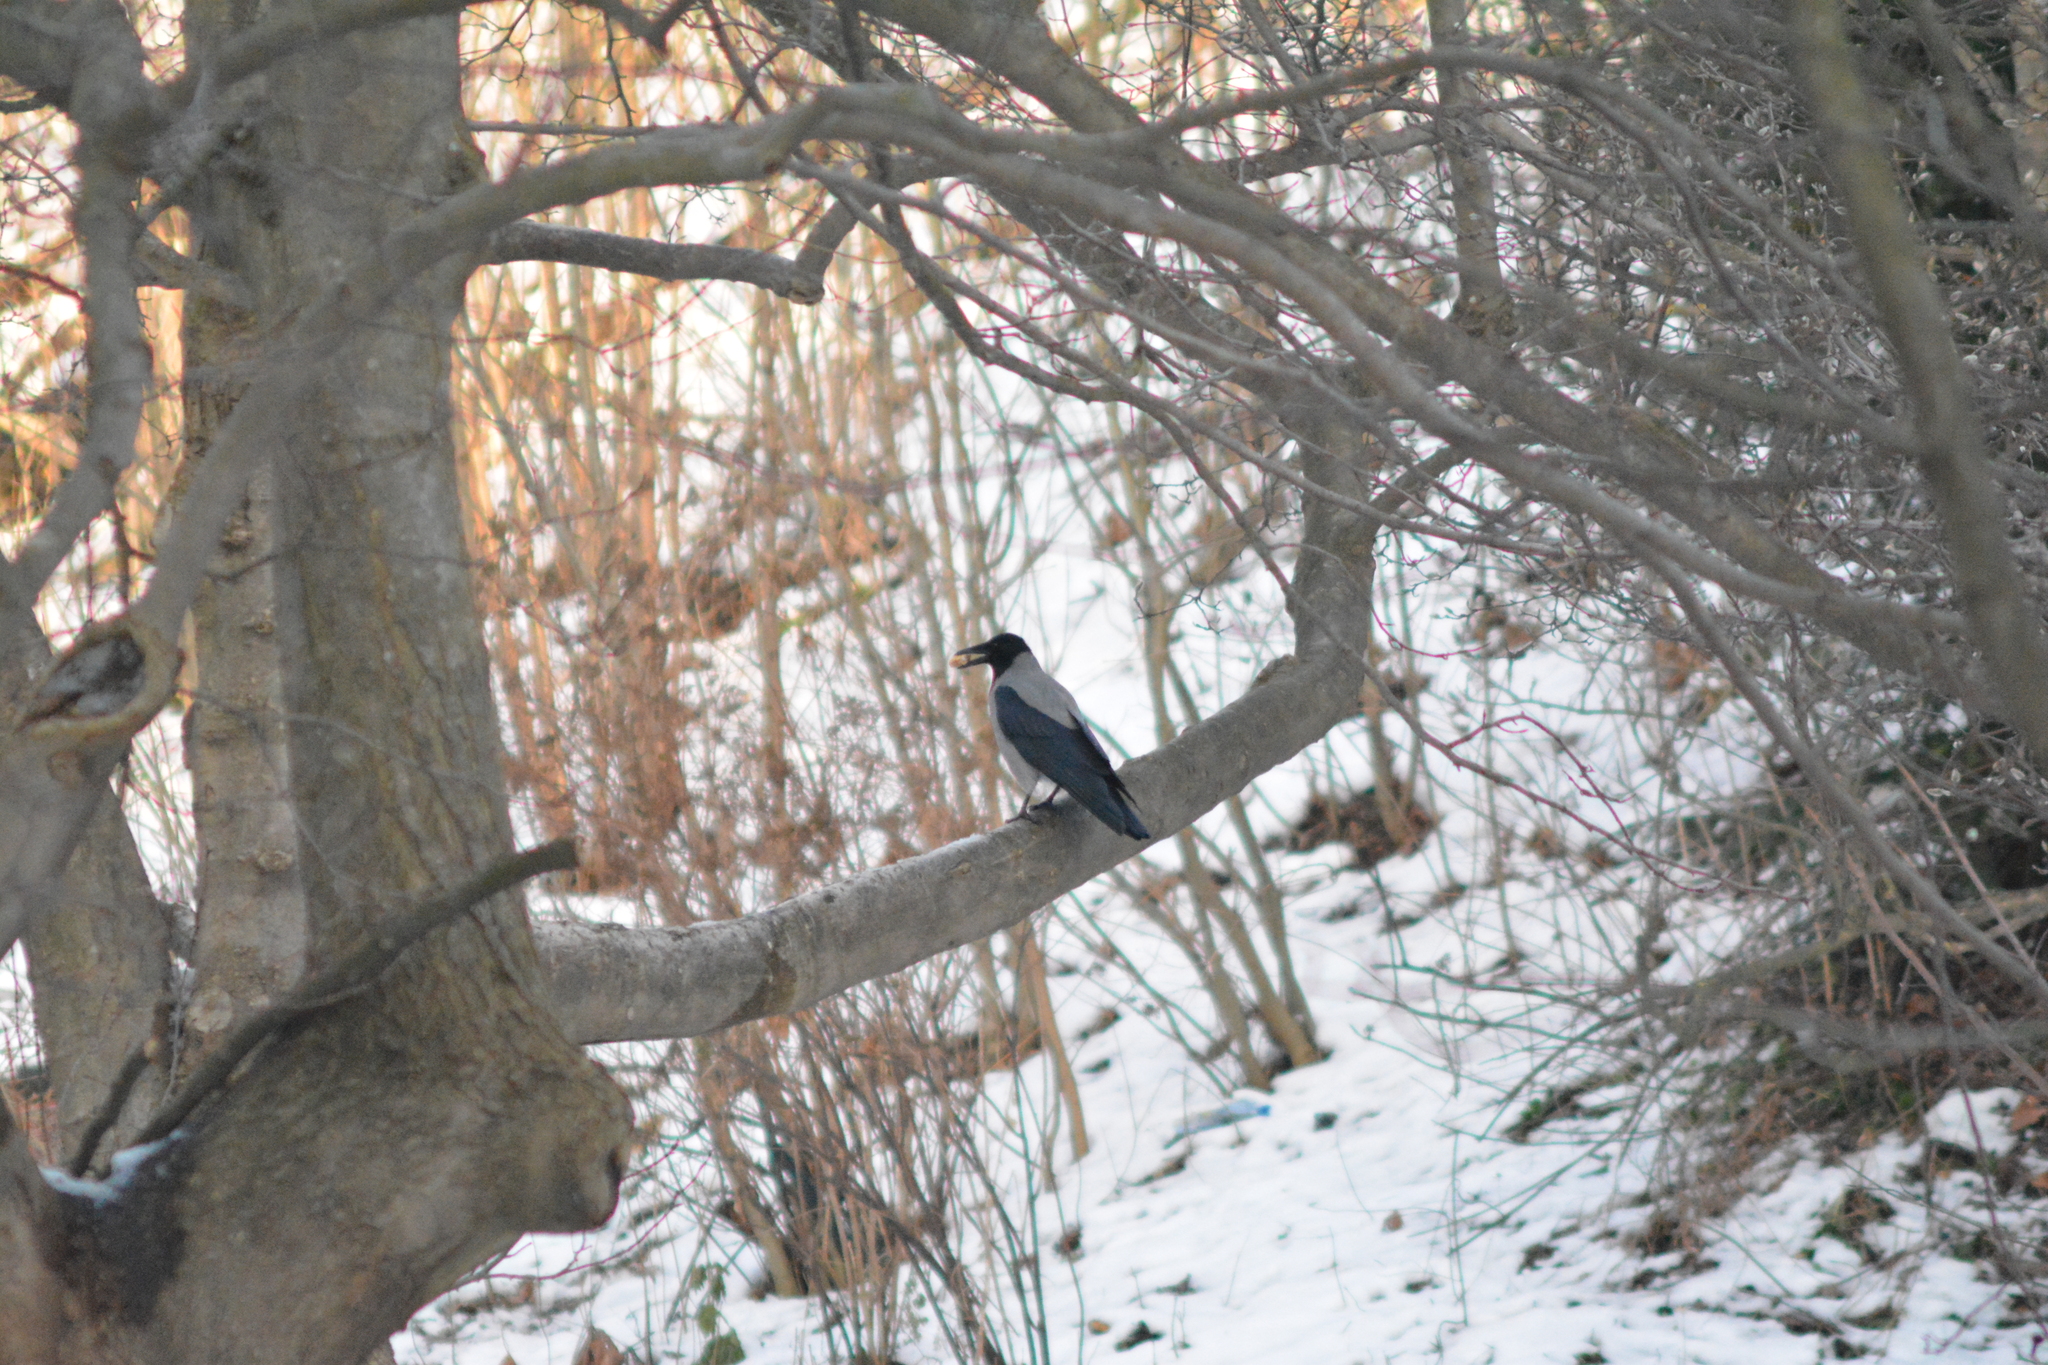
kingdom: Animalia
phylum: Chordata
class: Aves
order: Passeriformes
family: Corvidae
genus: Corvus
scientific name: Corvus cornix
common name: Hooded crow
